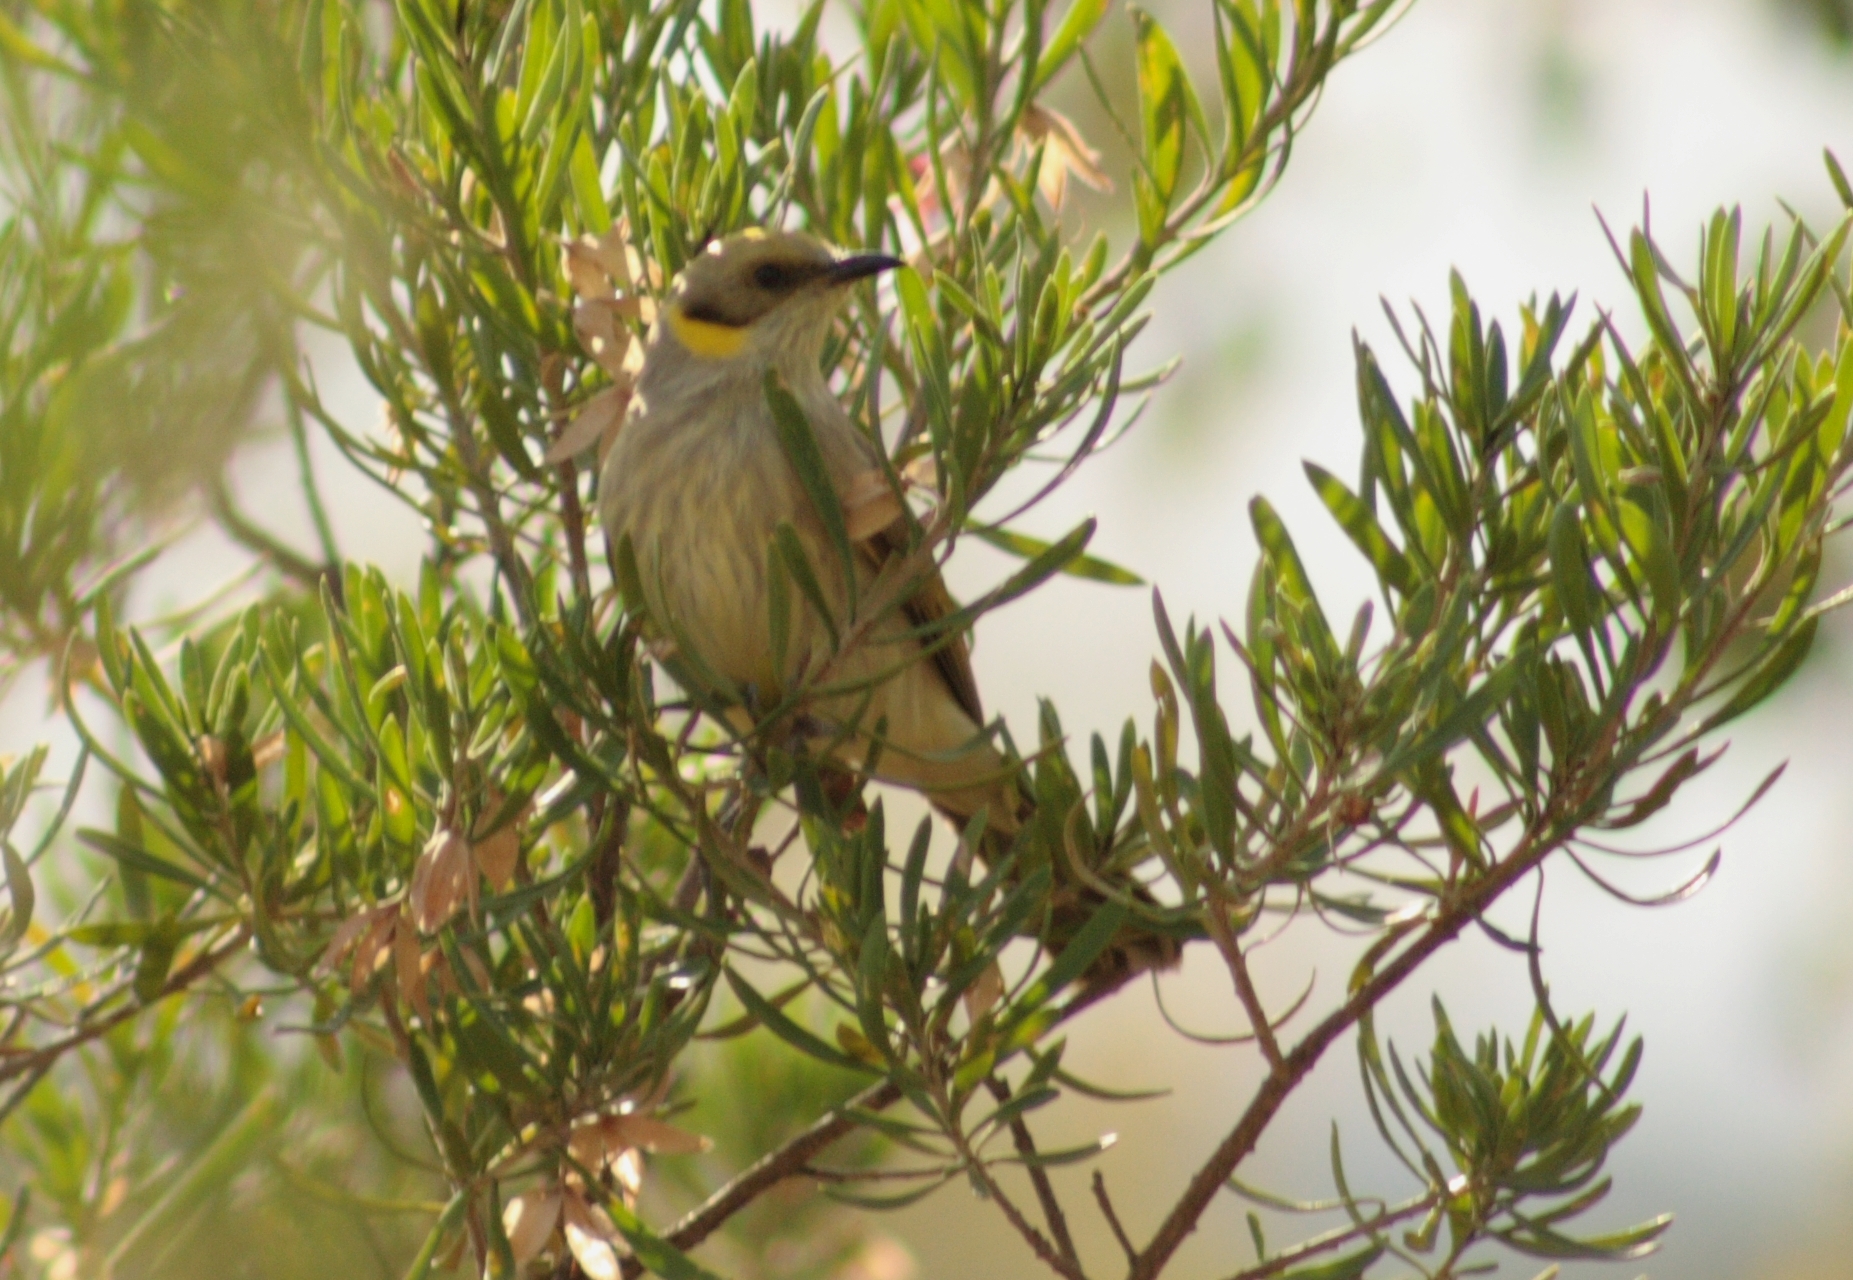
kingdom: Animalia
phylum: Chordata
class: Aves
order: Passeriformes
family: Meliphagidae
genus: Ptilotula
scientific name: Ptilotula plumula
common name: Grey-fronted honeyeater
